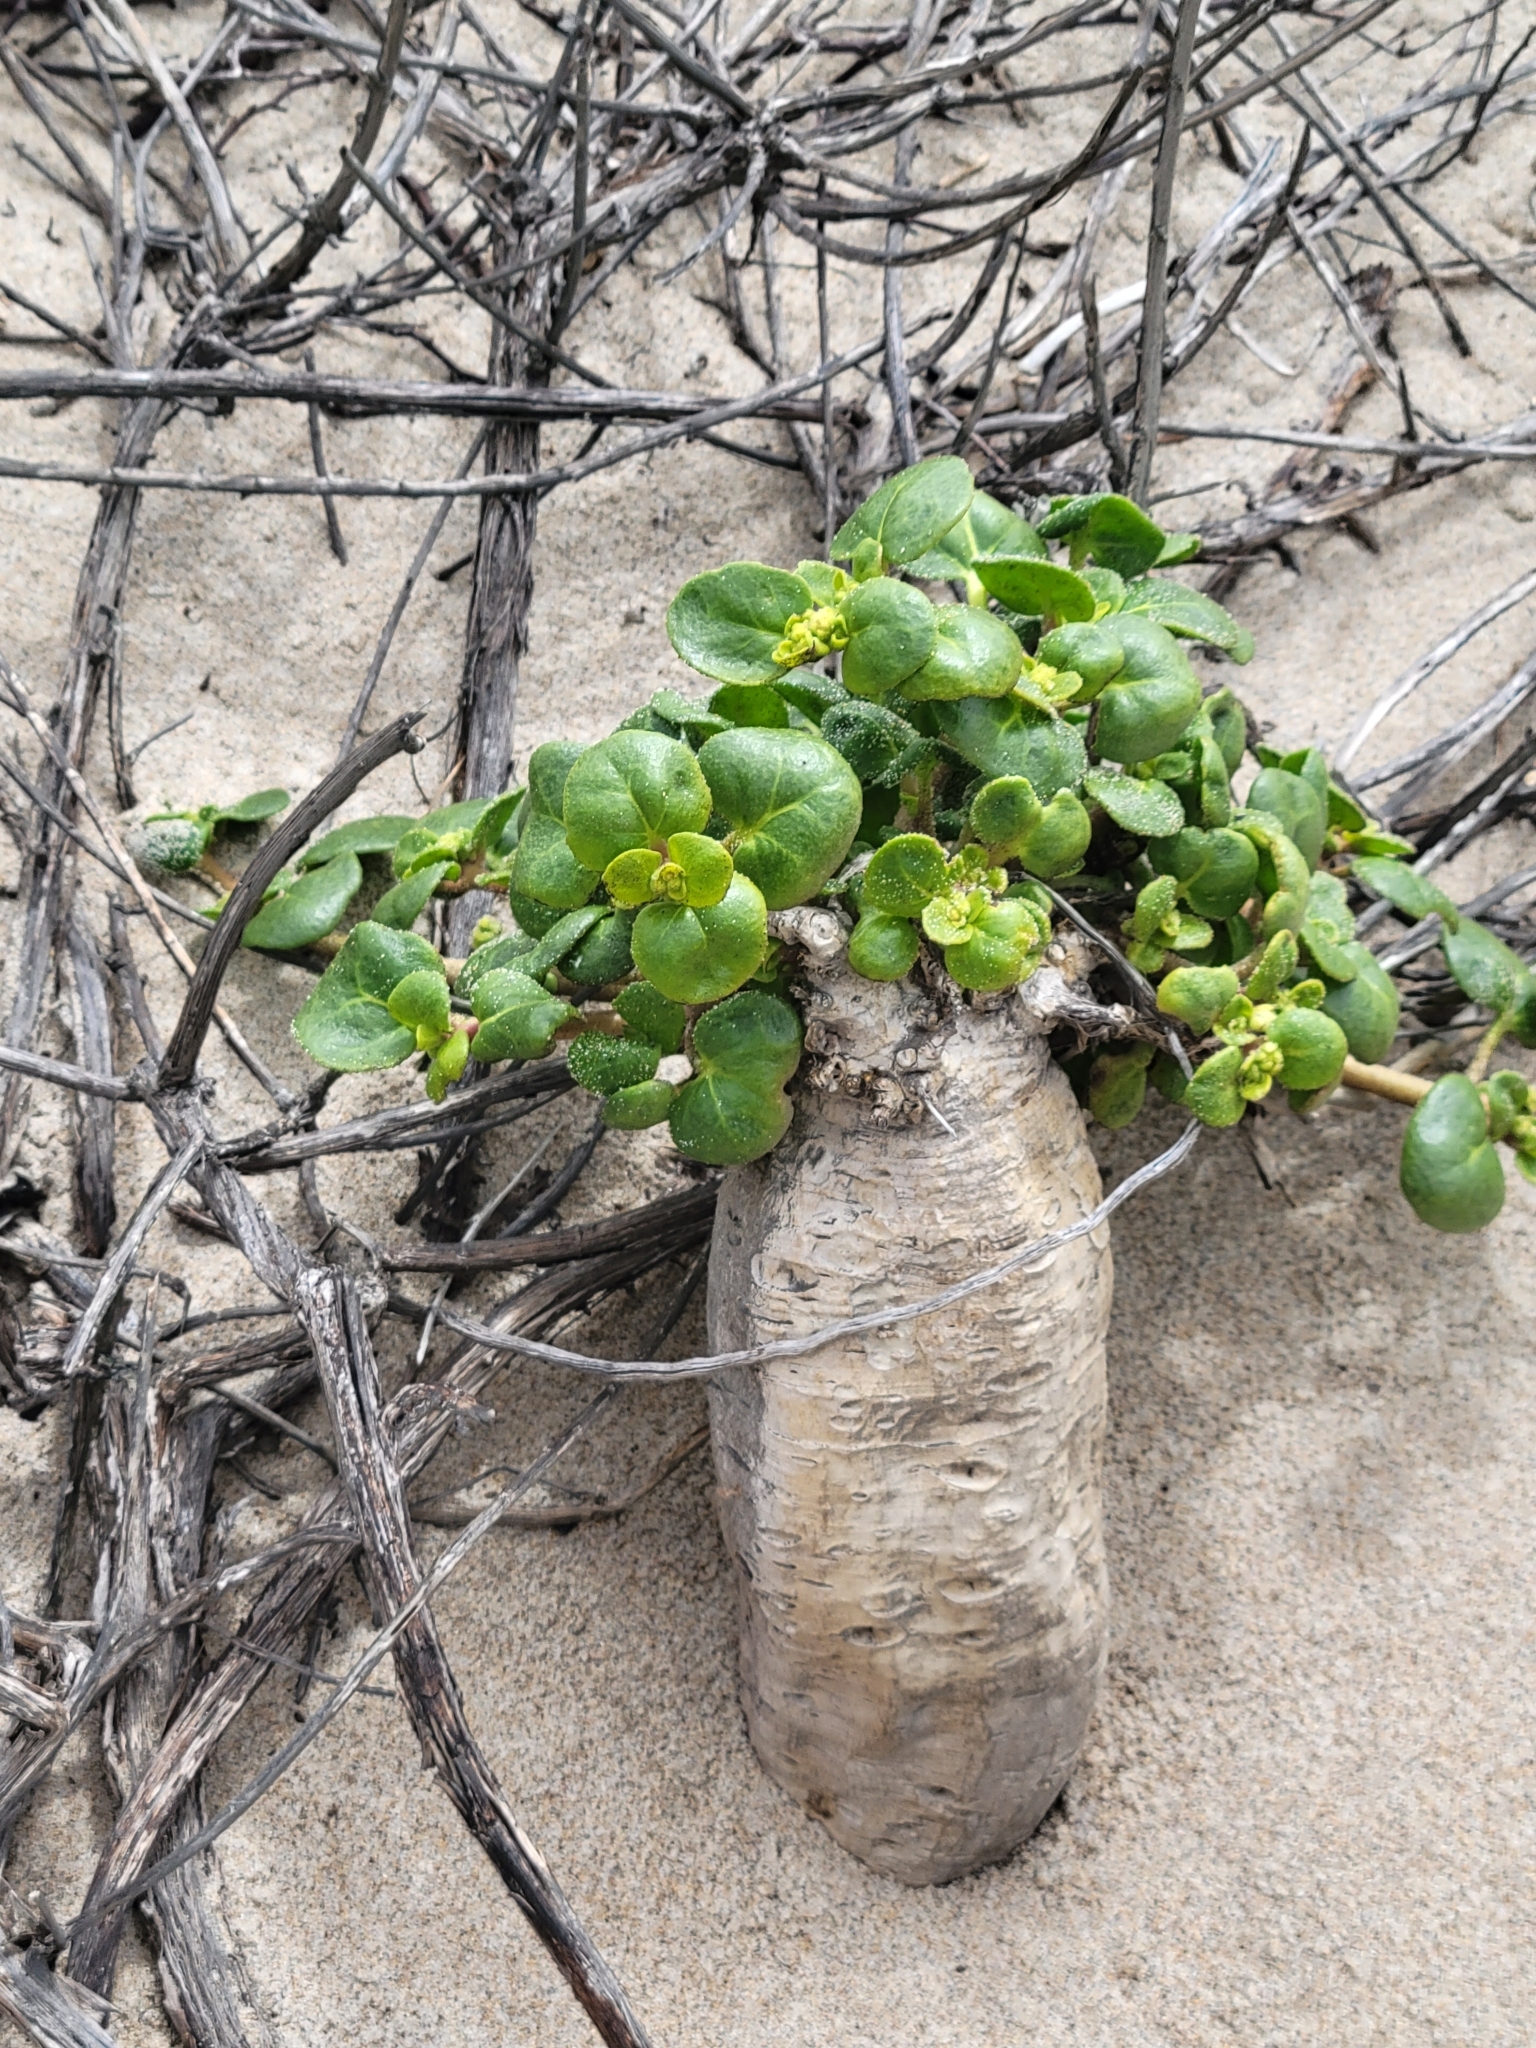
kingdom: Plantae
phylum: Tracheophyta
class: Magnoliopsida
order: Caryophyllales
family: Nyctaginaceae
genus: Abronia
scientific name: Abronia latifolia
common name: Yellow sand-verbena
